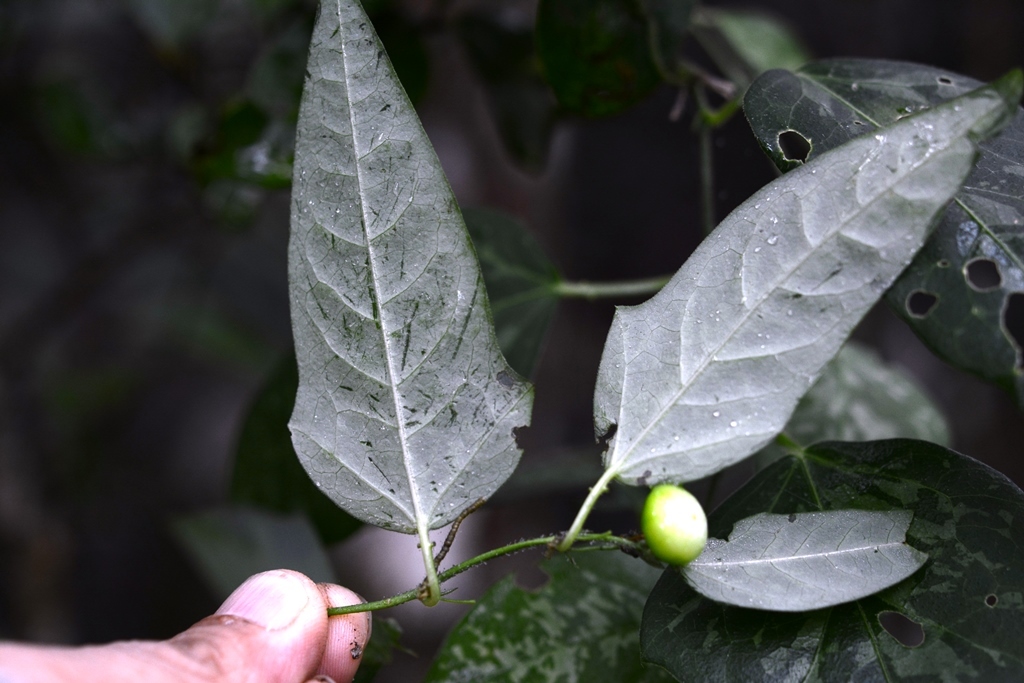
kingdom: Plantae
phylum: Tracheophyta
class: Magnoliopsida
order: Malpighiales
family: Passifloraceae
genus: Passiflora
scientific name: Passiflora suberosa
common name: Wild passionfruit
